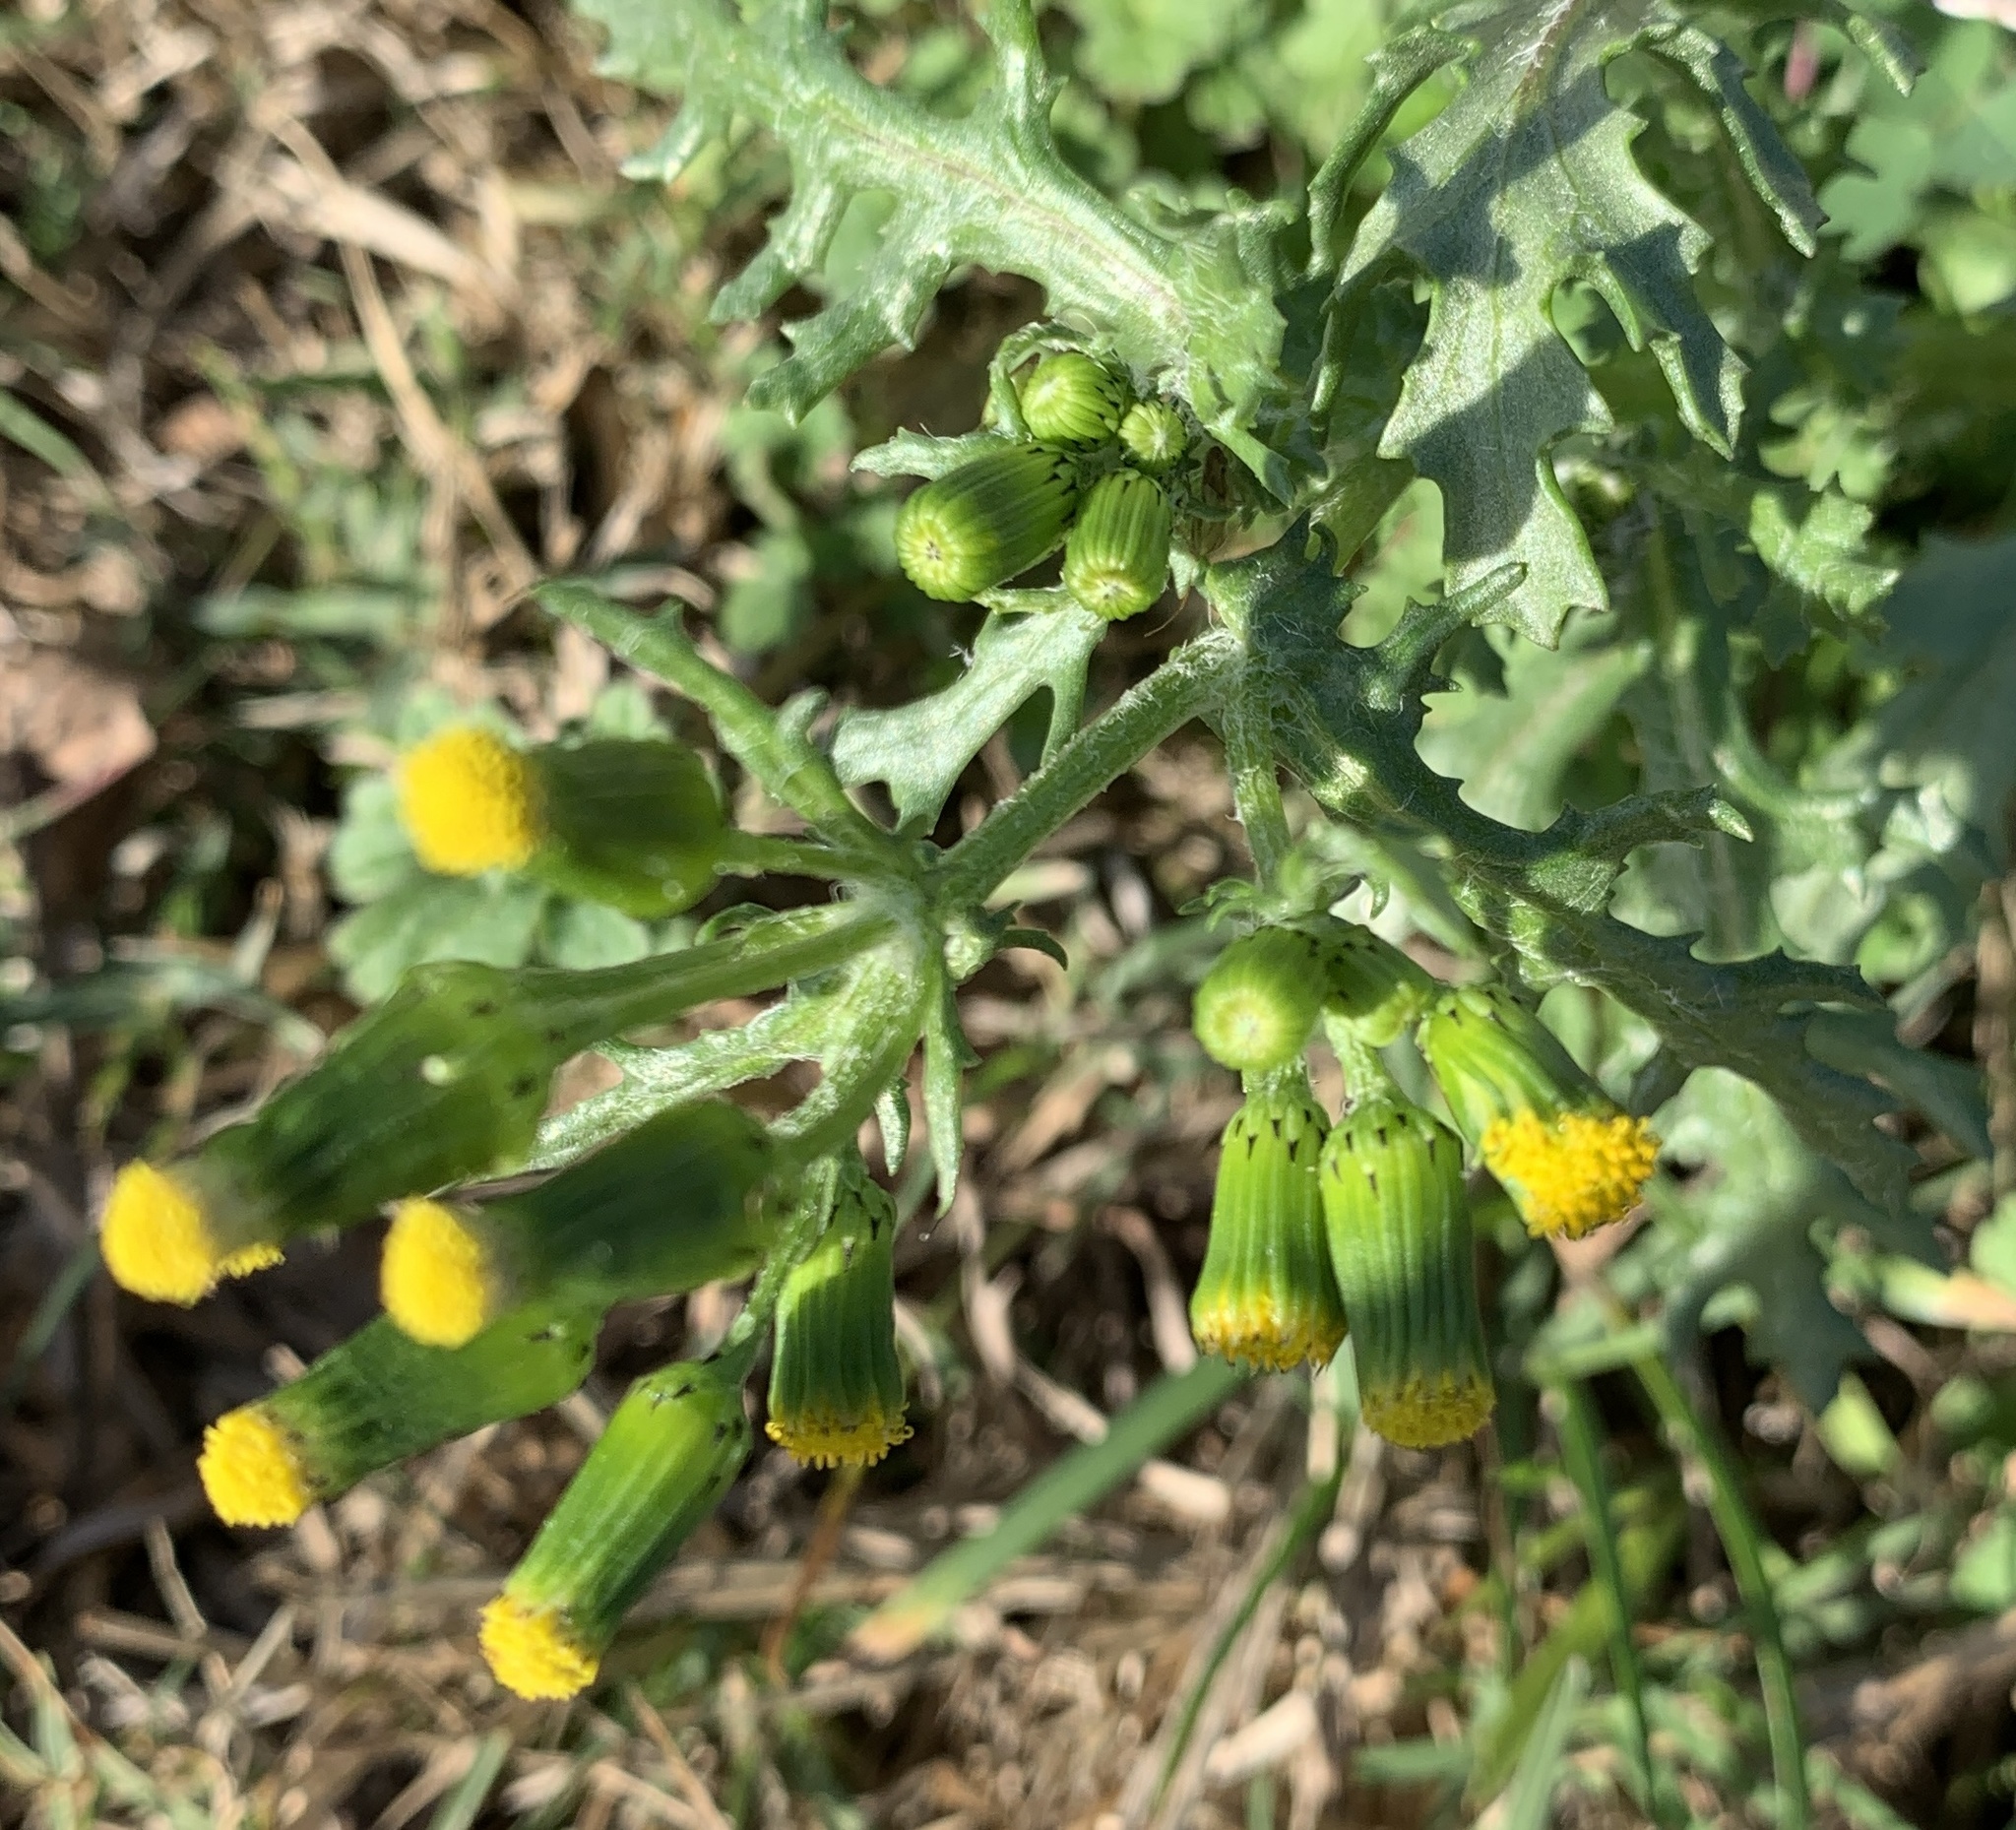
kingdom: Plantae
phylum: Tracheophyta
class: Magnoliopsida
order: Asterales
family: Asteraceae
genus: Senecio
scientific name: Senecio vulgaris
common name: Old-man-in-the-spring
